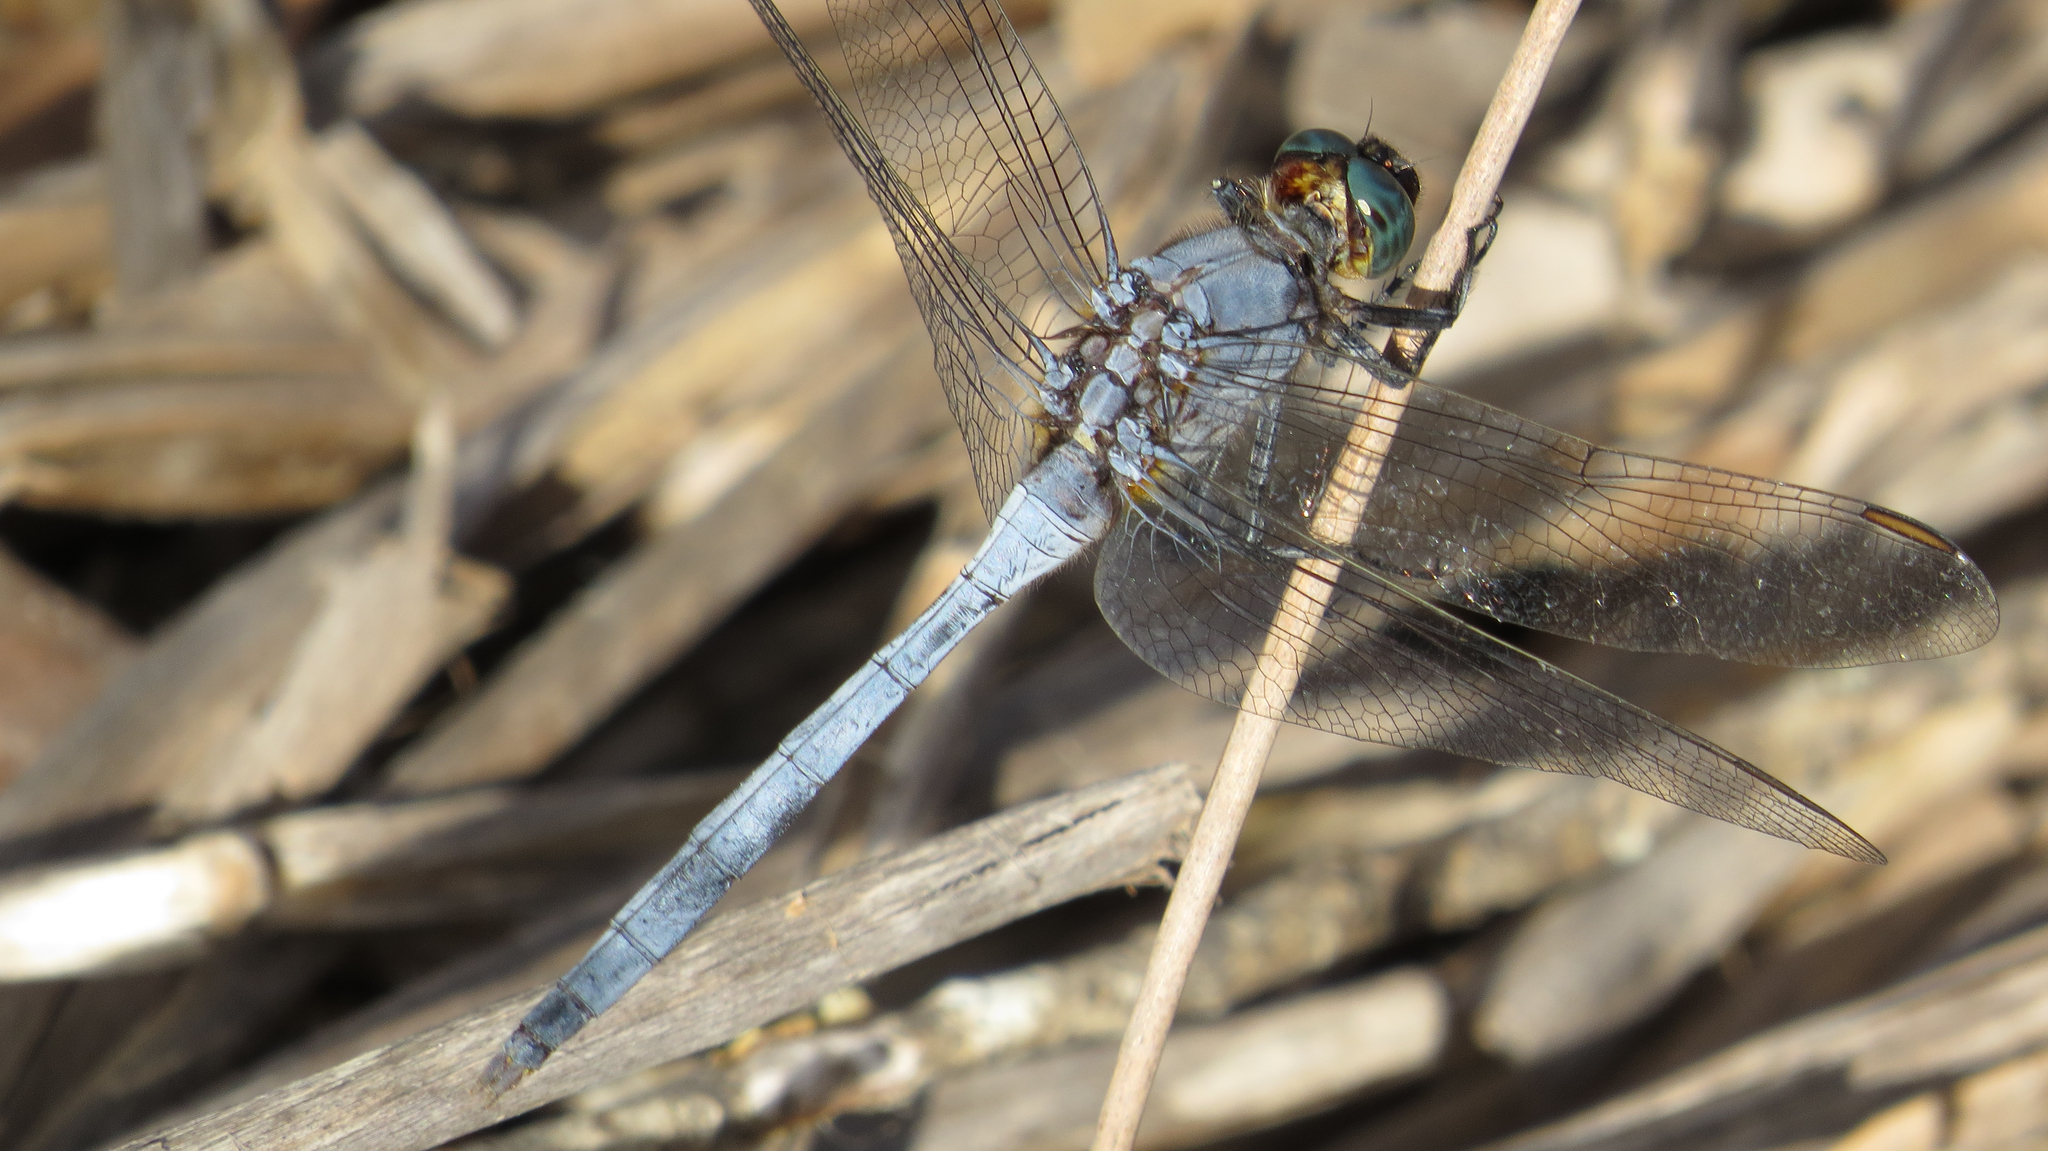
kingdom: Animalia
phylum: Arthropoda
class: Insecta
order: Odonata
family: Libellulidae
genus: Orthetrum
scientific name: Orthetrum boumiera
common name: Brownwater skimmer
